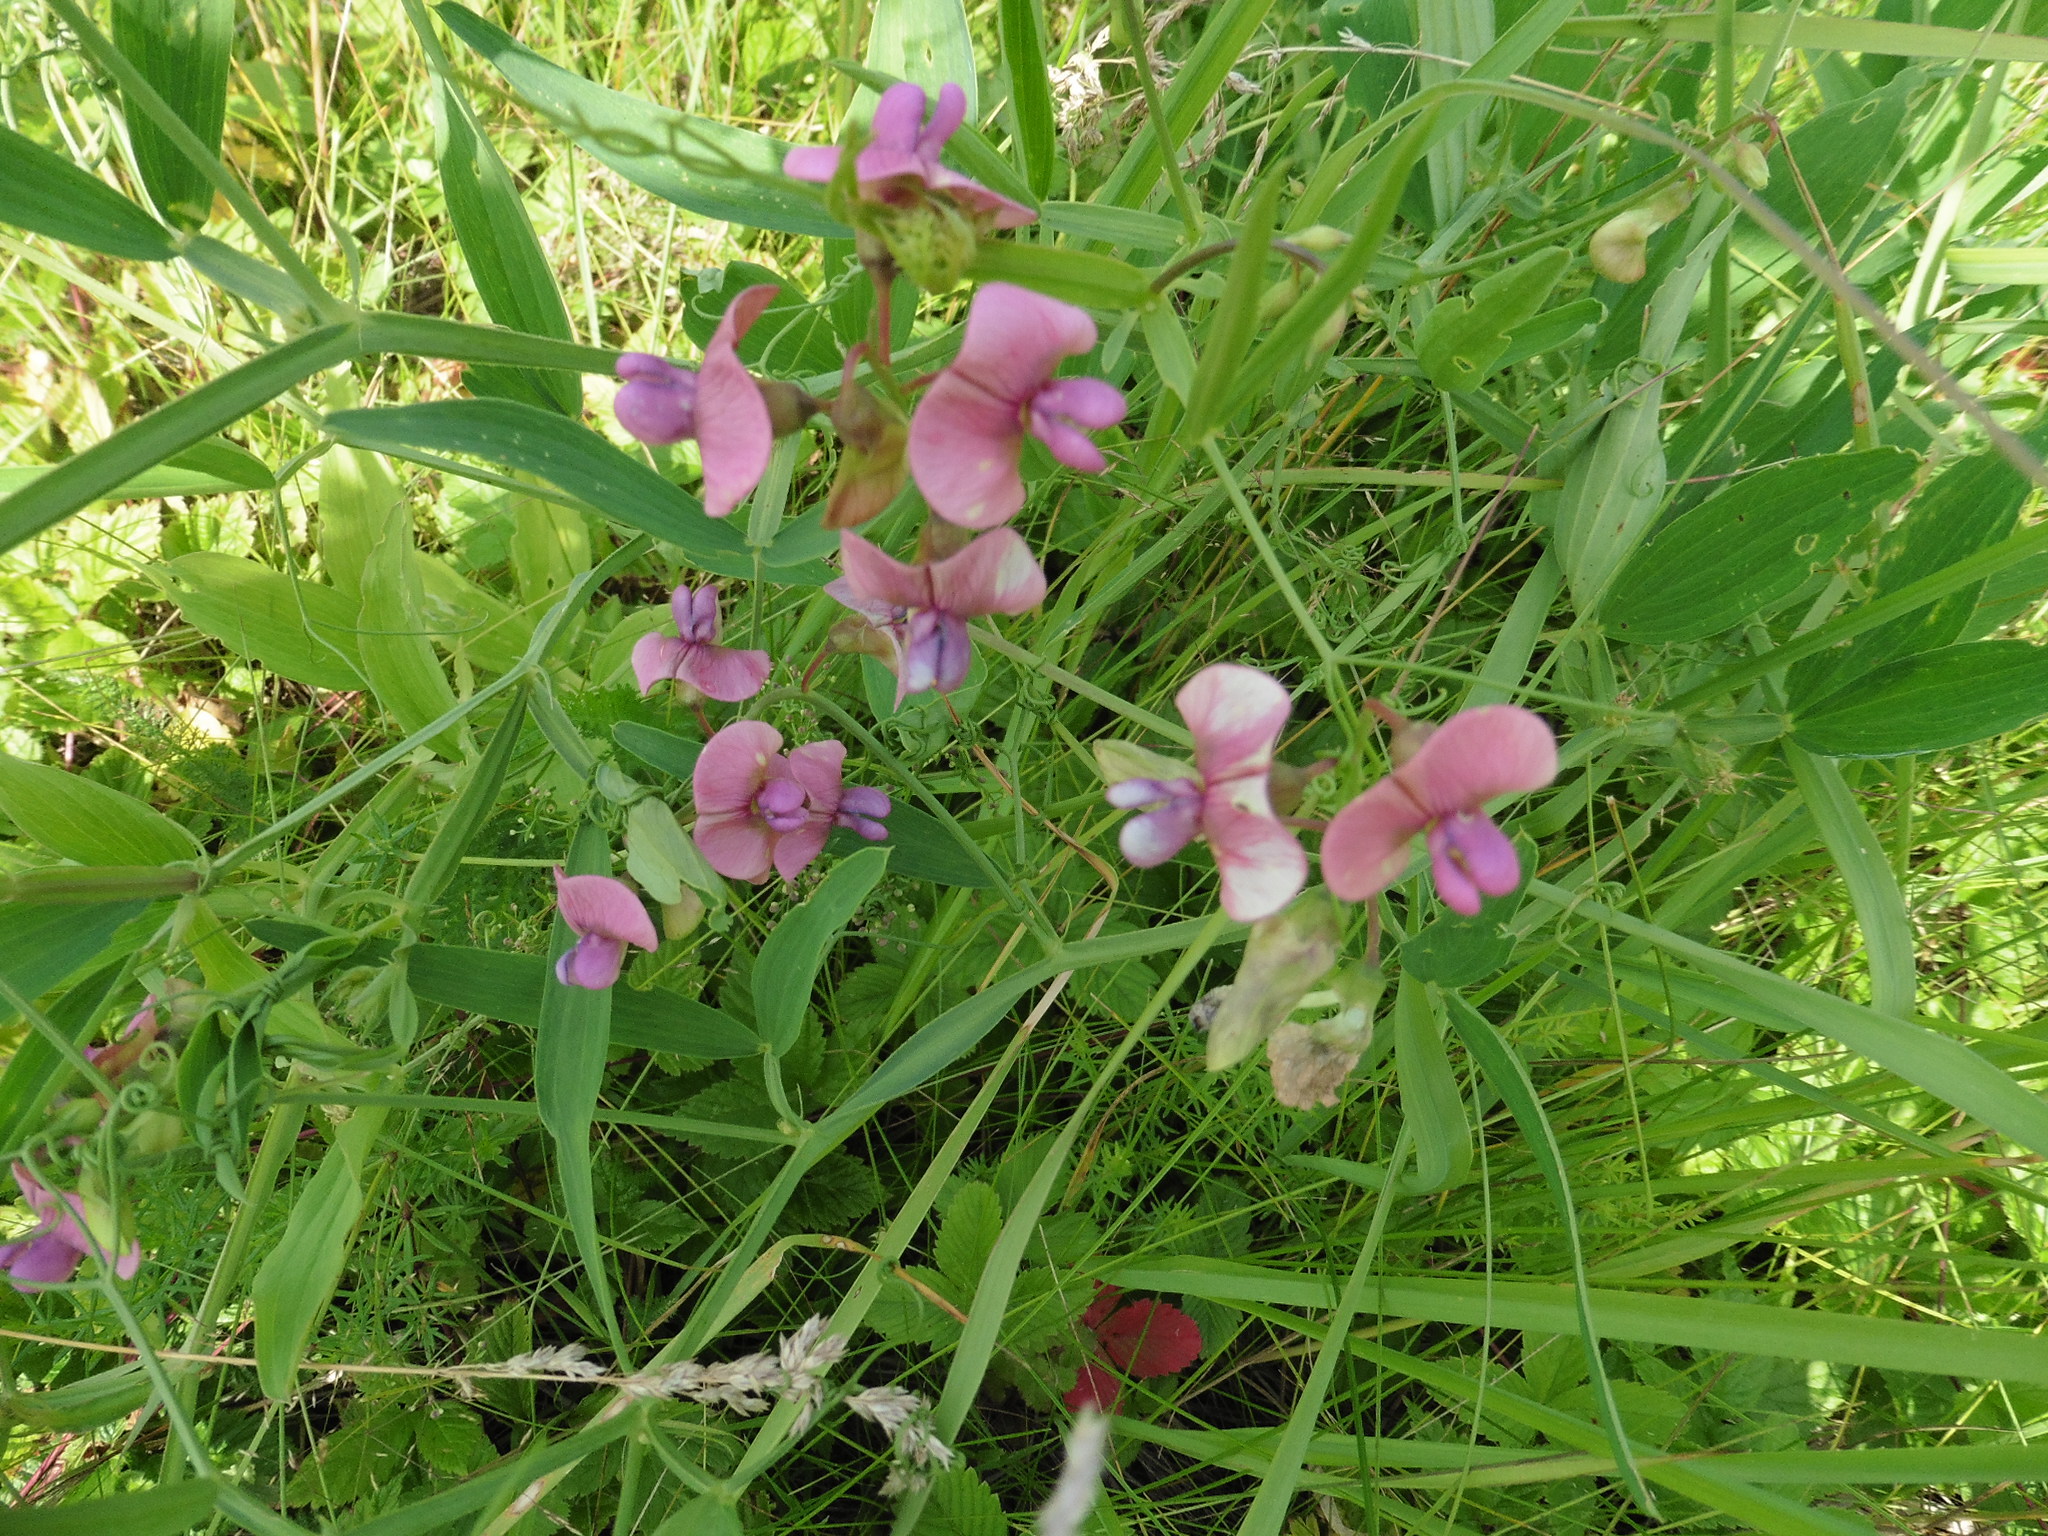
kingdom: Plantae
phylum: Tracheophyta
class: Magnoliopsida
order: Fabales
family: Fabaceae
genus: Lathyrus
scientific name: Lathyrus sylvestris
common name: Flat pea
